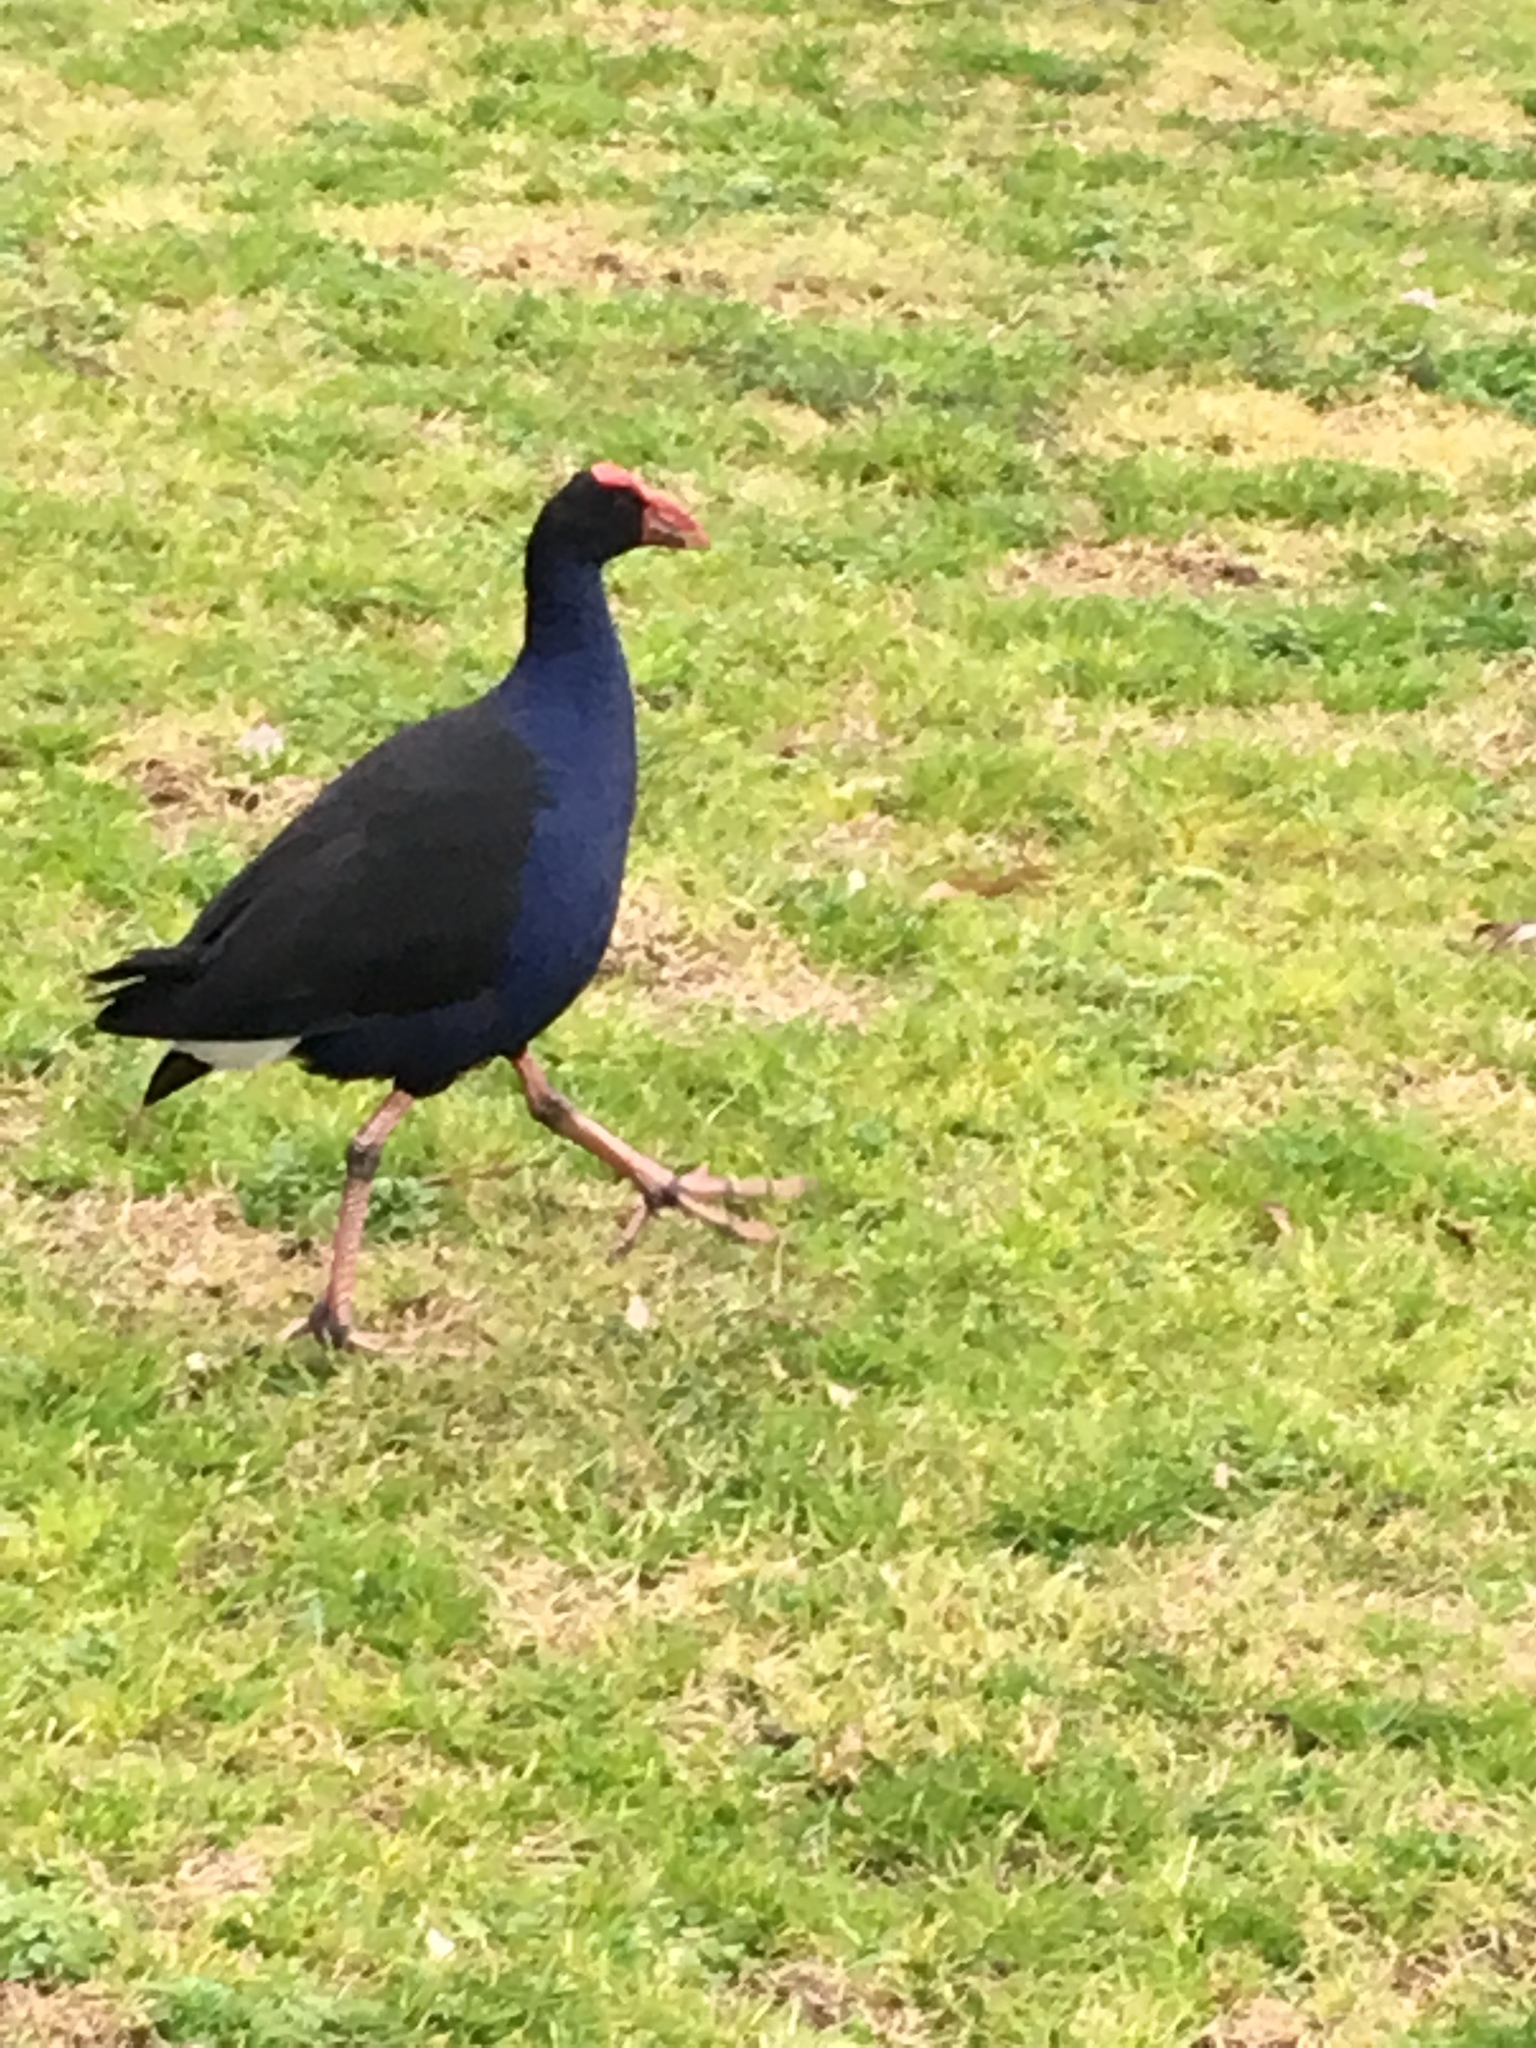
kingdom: Animalia
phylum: Chordata
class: Aves
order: Gruiformes
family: Rallidae
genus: Porphyrio
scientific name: Porphyrio melanotus
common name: Australasian swamphen
